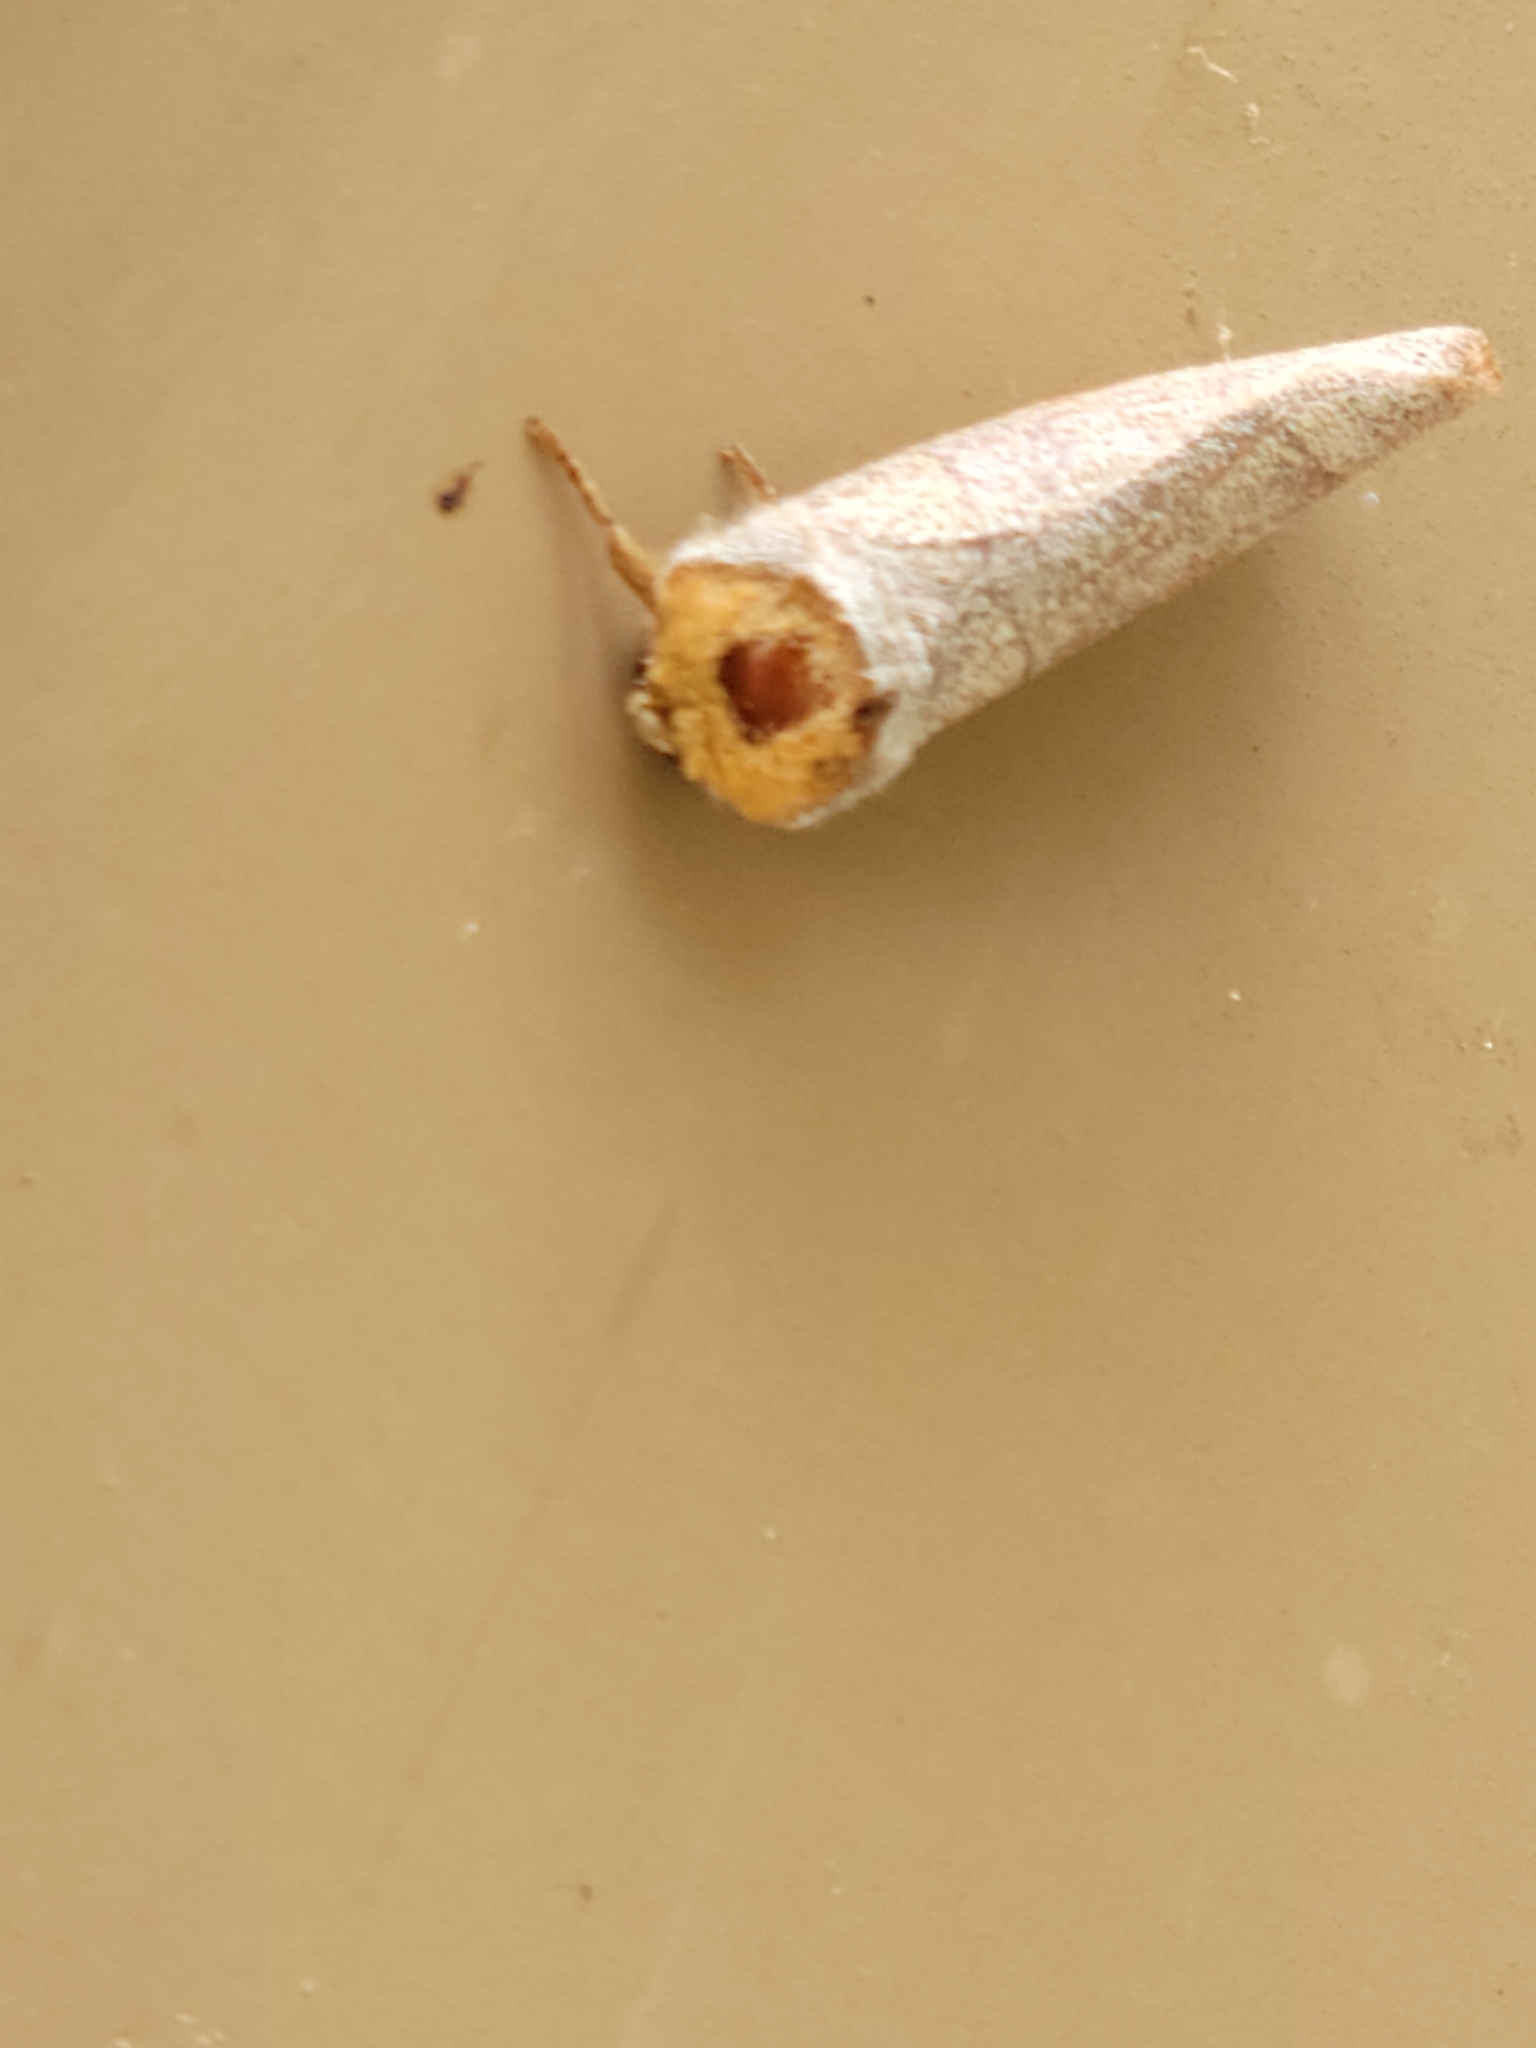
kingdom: Animalia
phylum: Arthropoda
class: Insecta
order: Lepidoptera
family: Notodontidae
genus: Datana
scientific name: Datana diffidens
